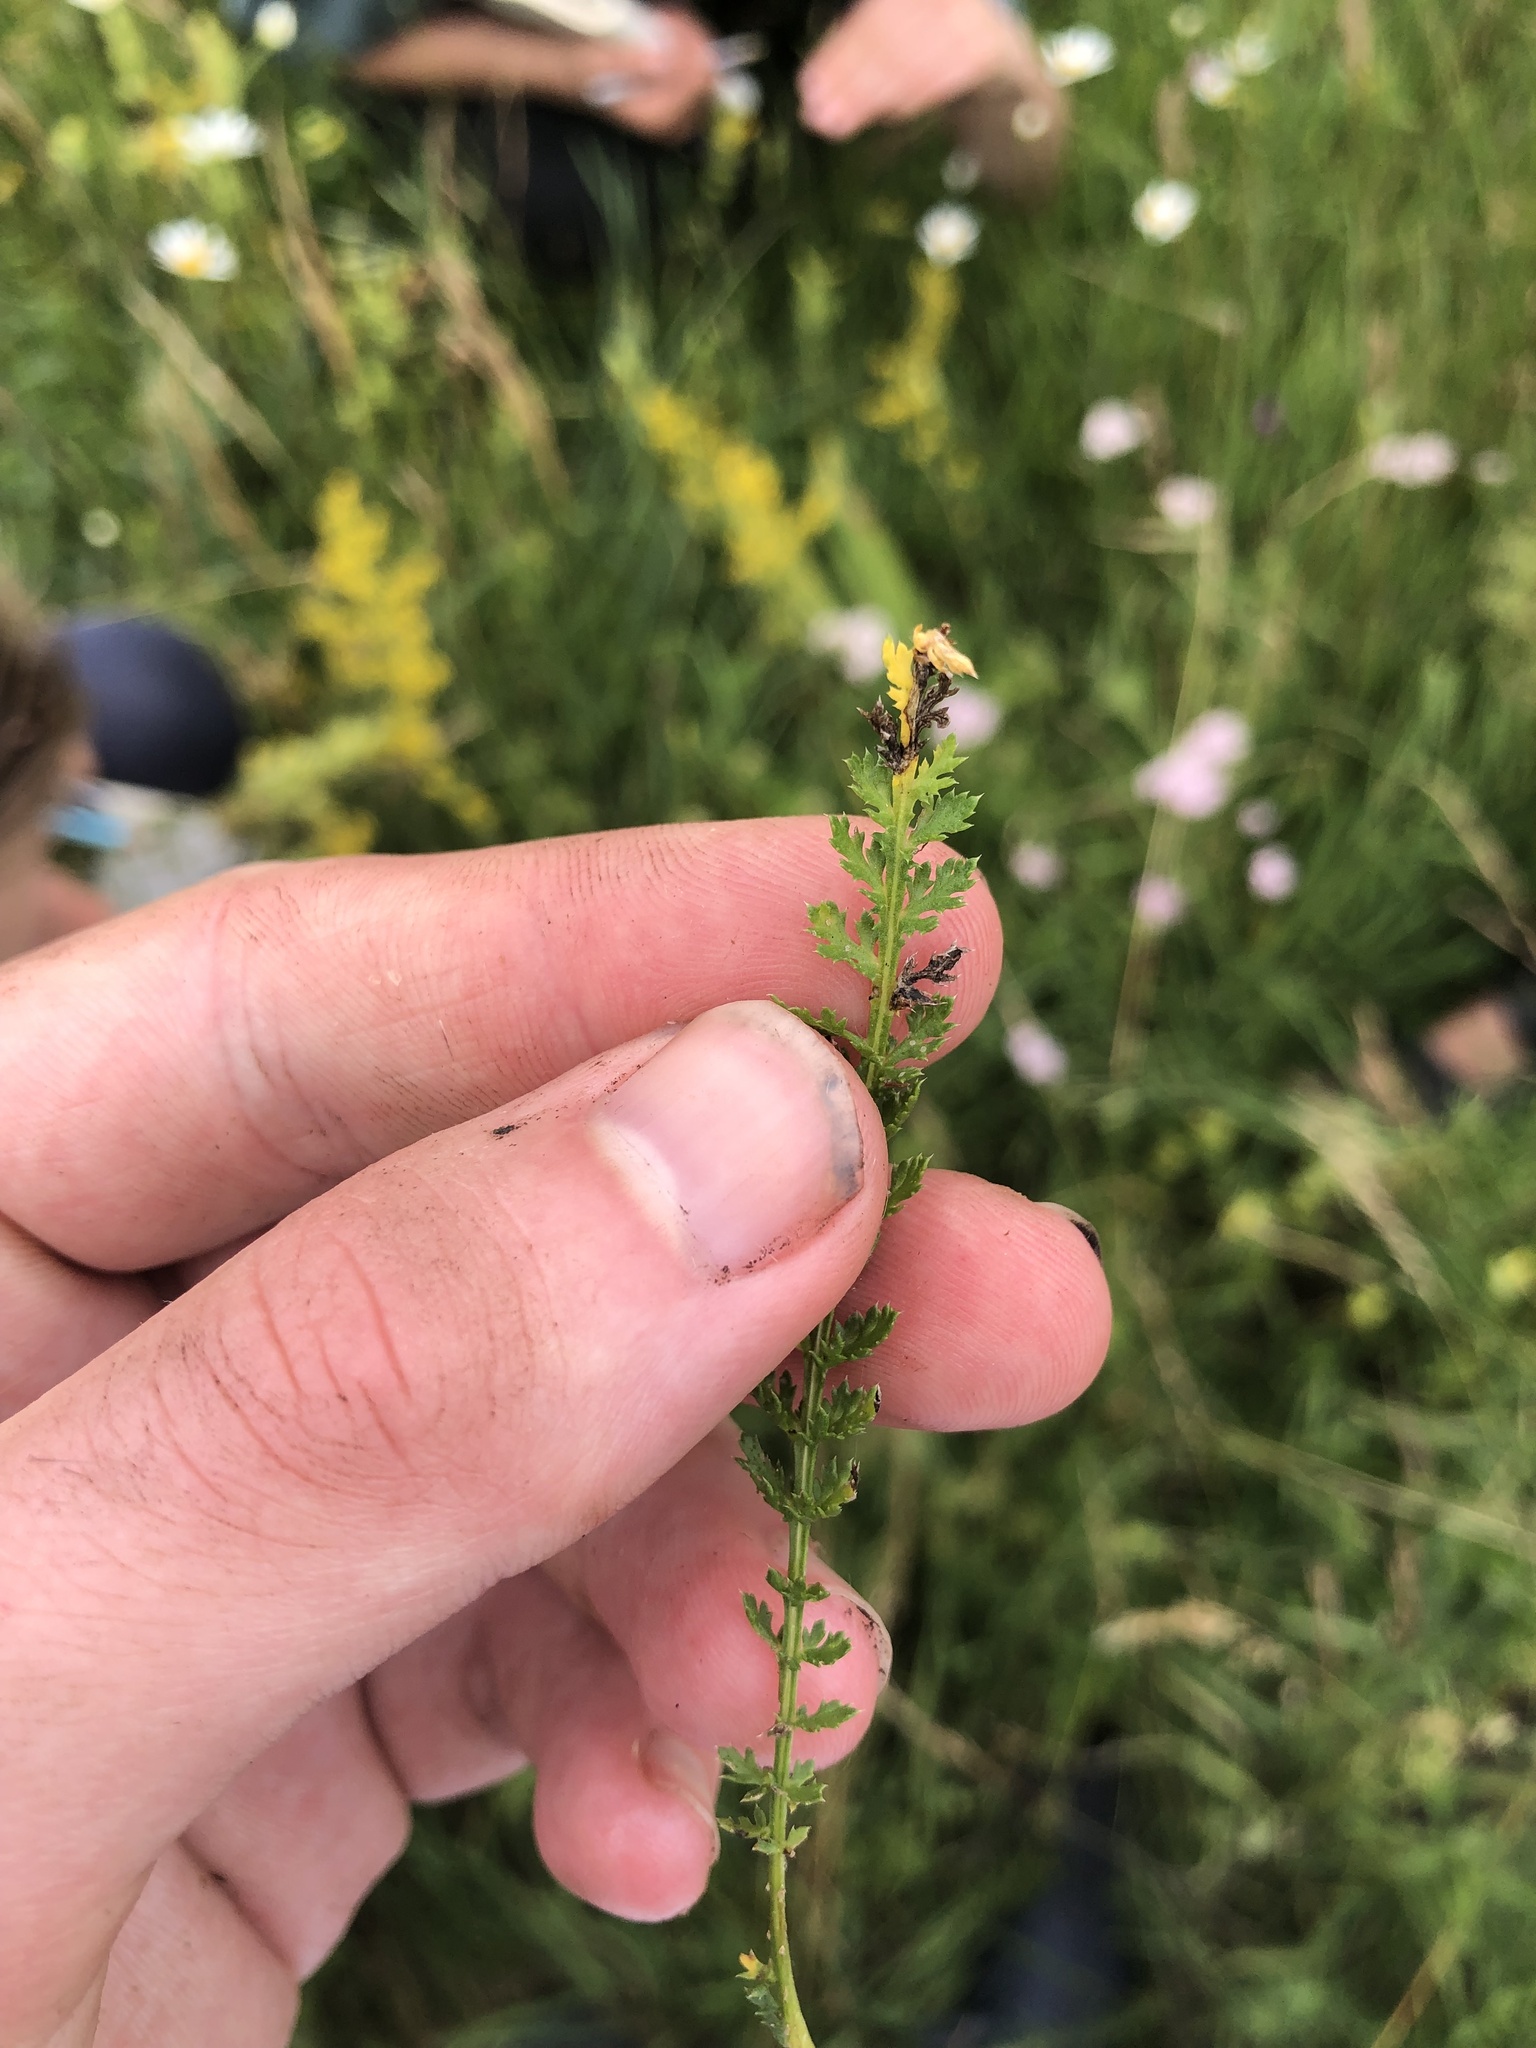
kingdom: Plantae
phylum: Tracheophyta
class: Magnoliopsida
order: Asterales
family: Asteraceae
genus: Achillea
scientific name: Achillea aspleniifolia
